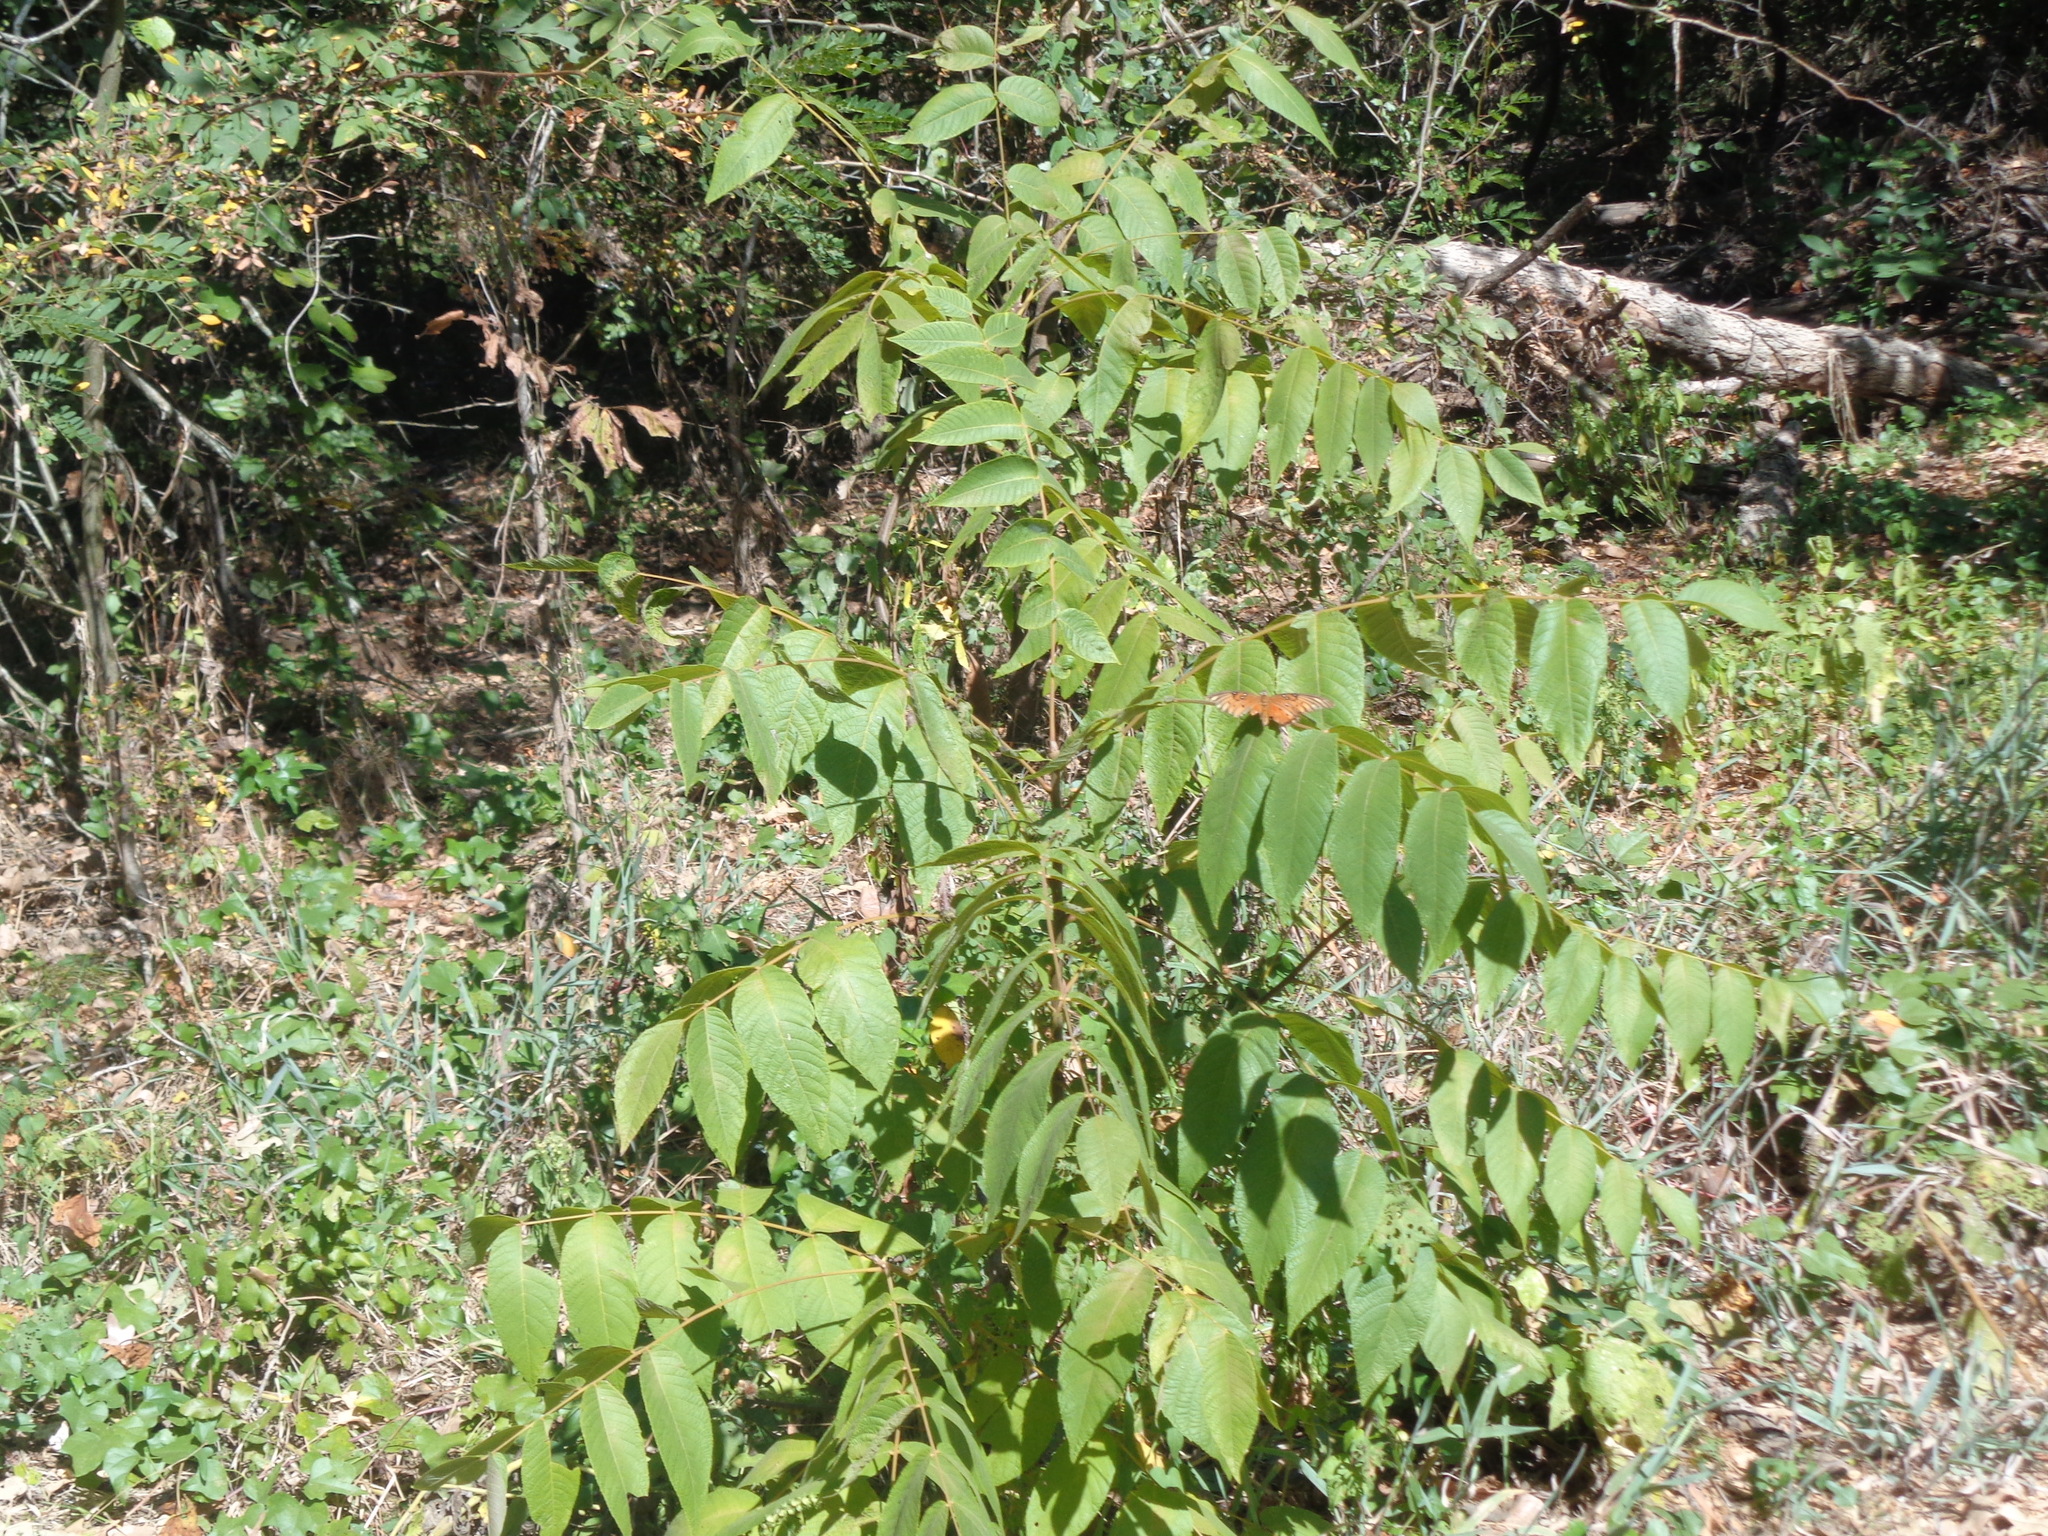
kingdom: Plantae
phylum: Tracheophyta
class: Magnoliopsida
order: Fagales
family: Juglandaceae
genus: Carya
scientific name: Carya illinoinensis
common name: Pecan
